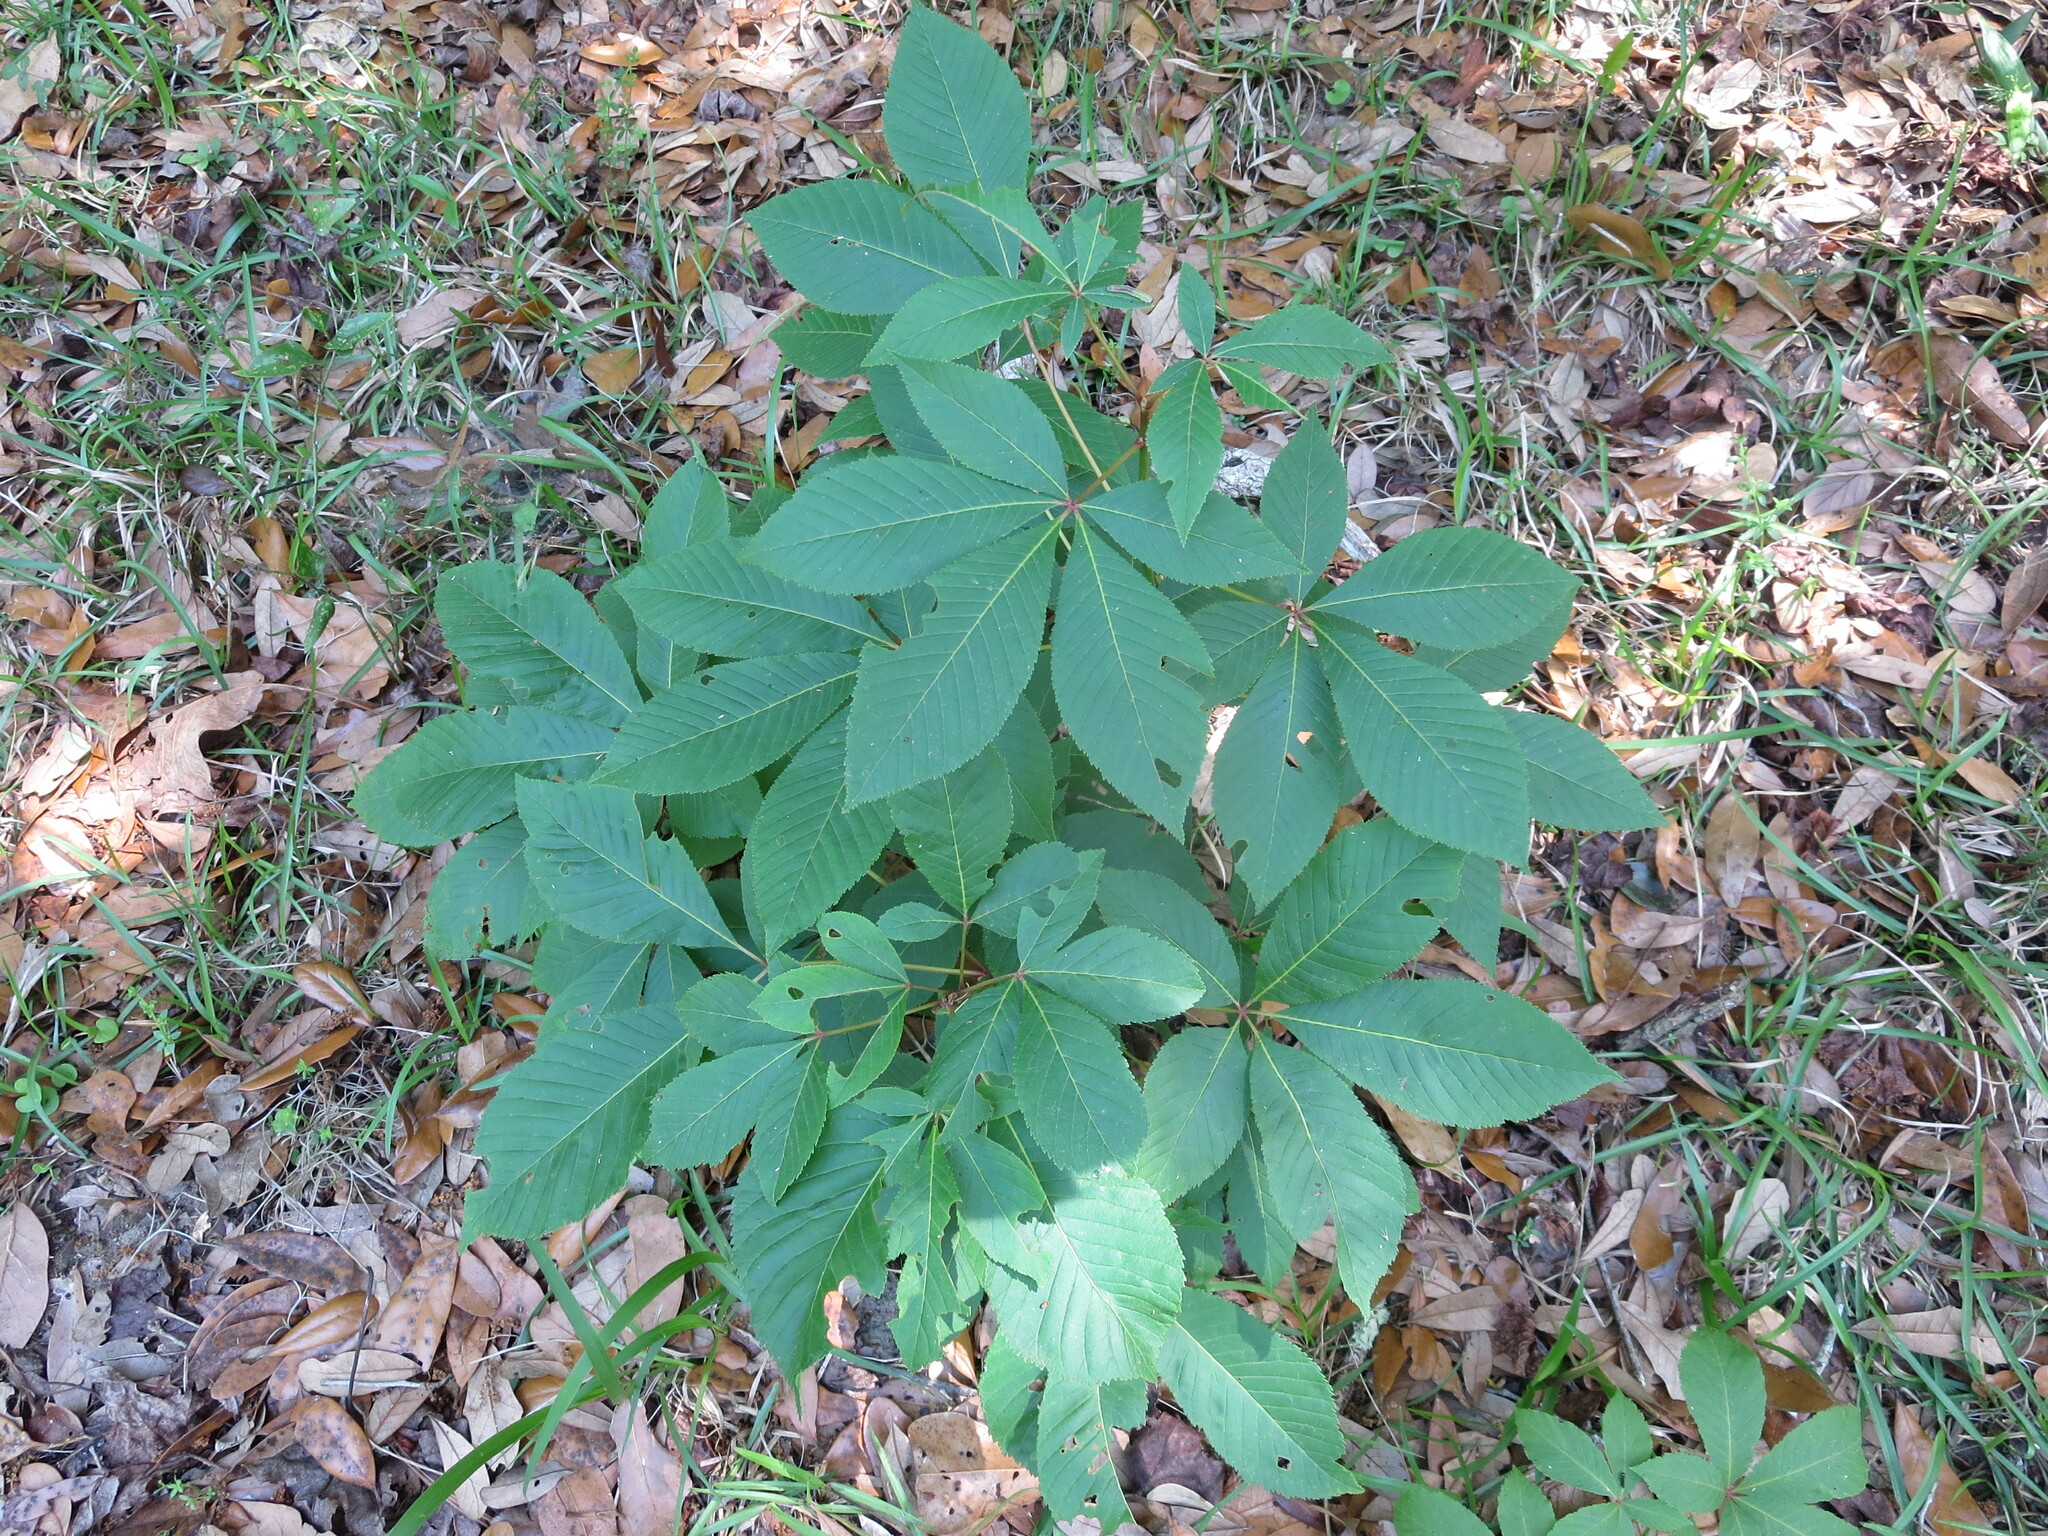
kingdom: Plantae
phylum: Tracheophyta
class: Magnoliopsida
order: Sapindales
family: Sapindaceae
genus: Aesculus
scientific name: Aesculus pavia
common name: Red buckeye
